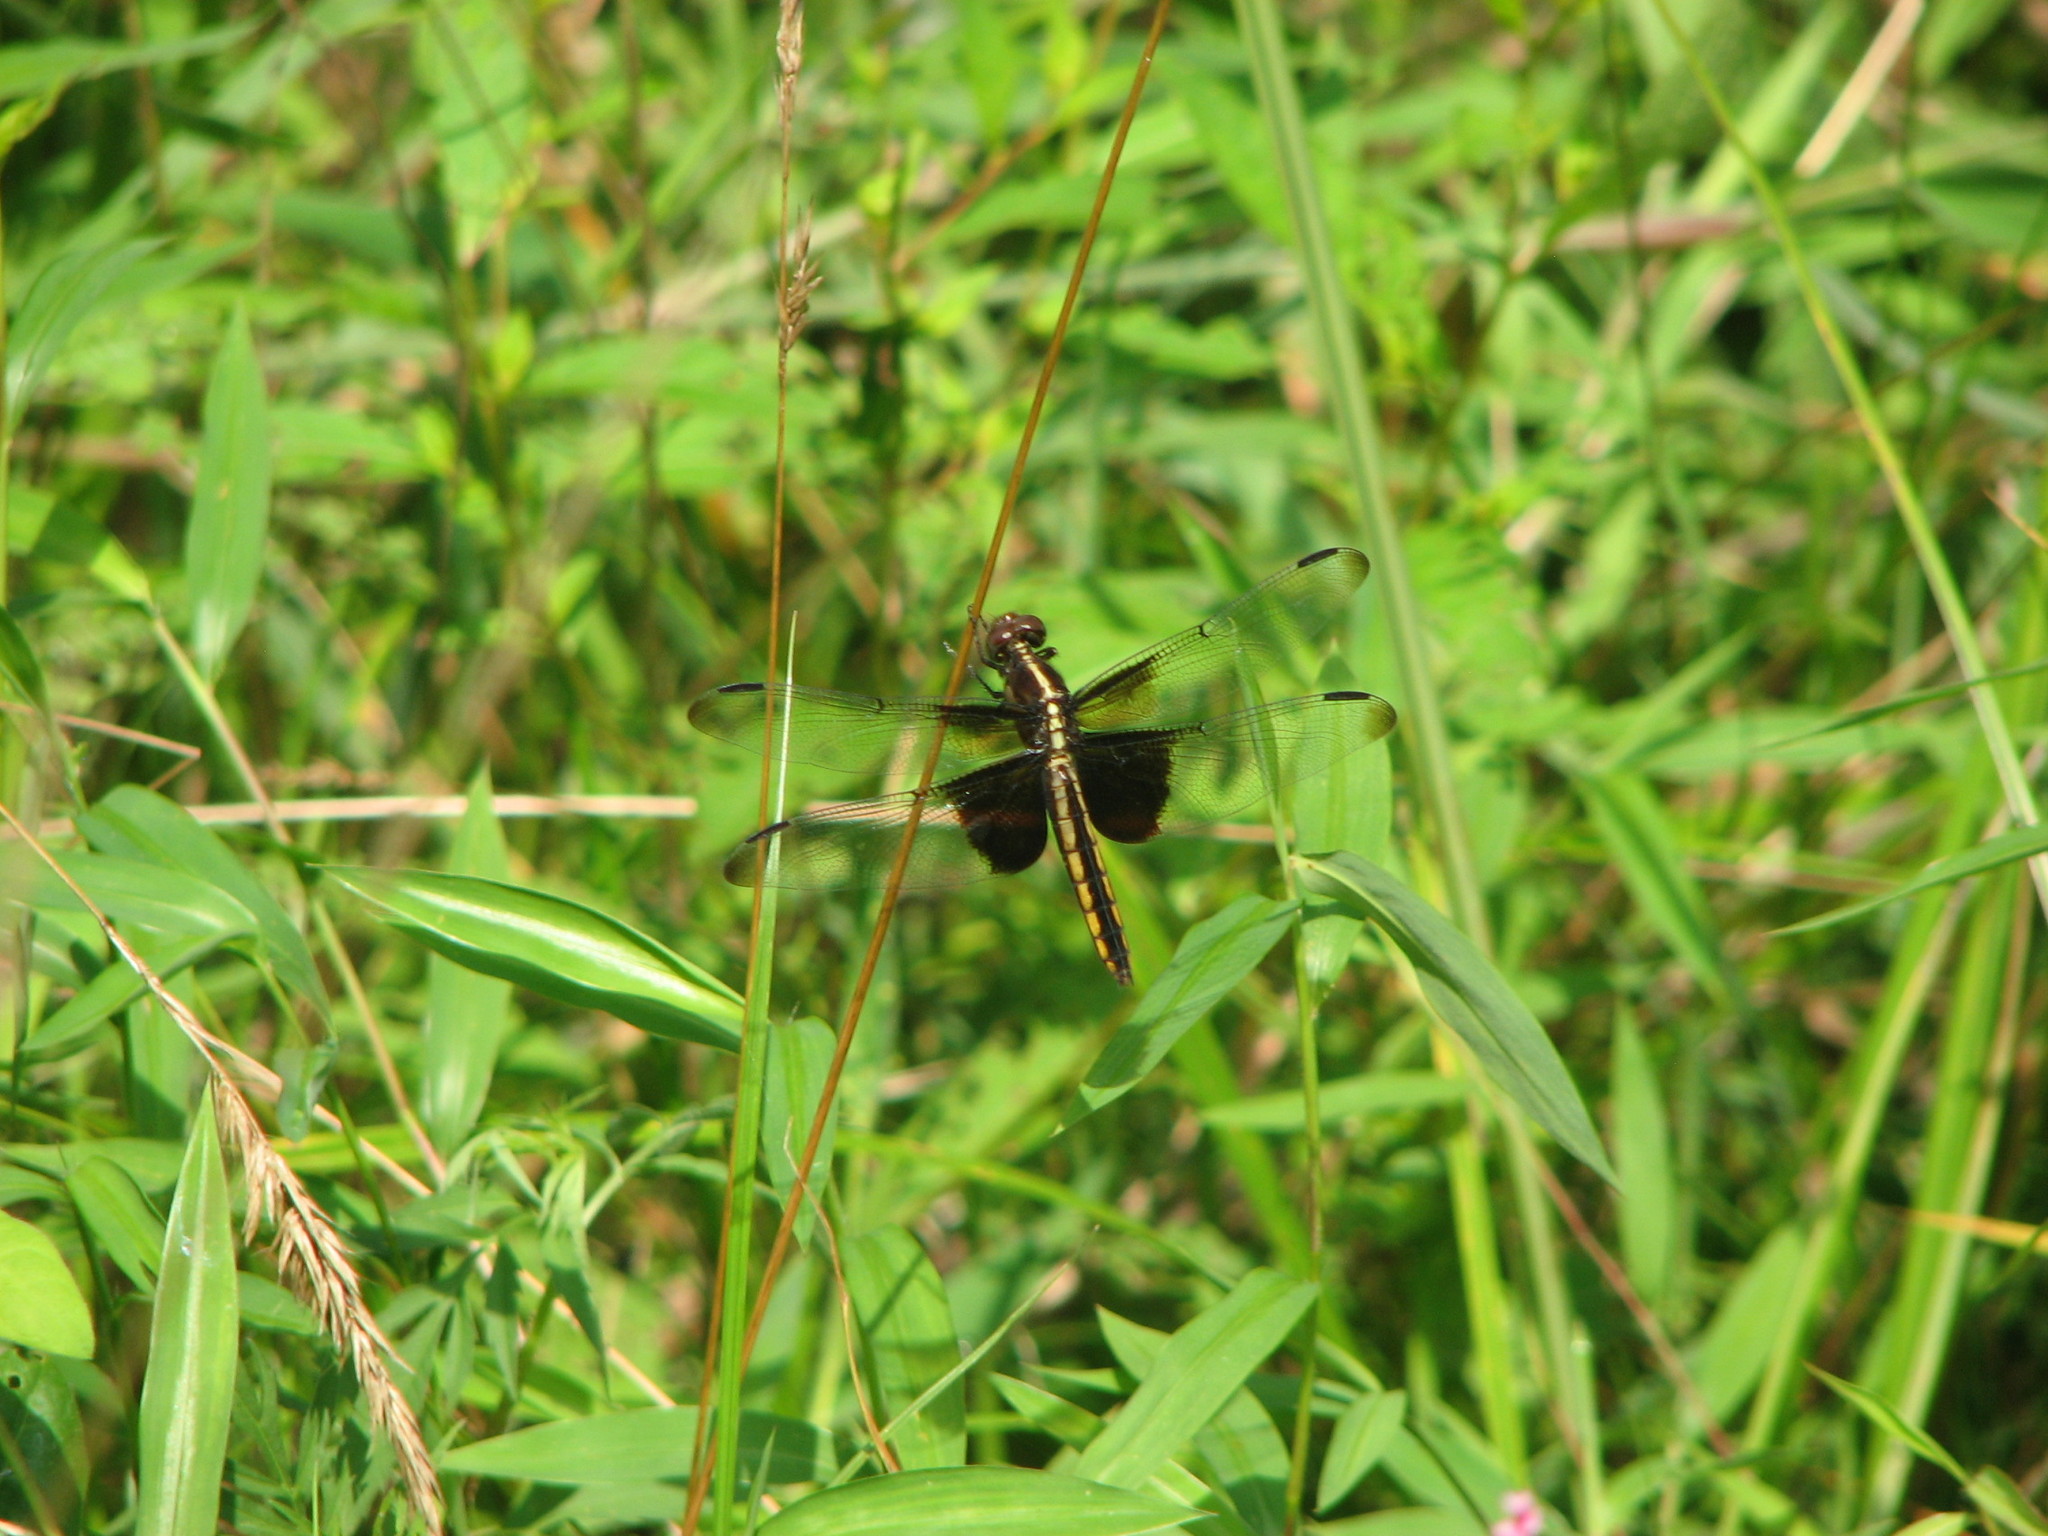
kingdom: Animalia
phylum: Arthropoda
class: Insecta
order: Odonata
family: Libellulidae
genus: Libellula
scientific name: Libellula luctuosa
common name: Widow skimmer
